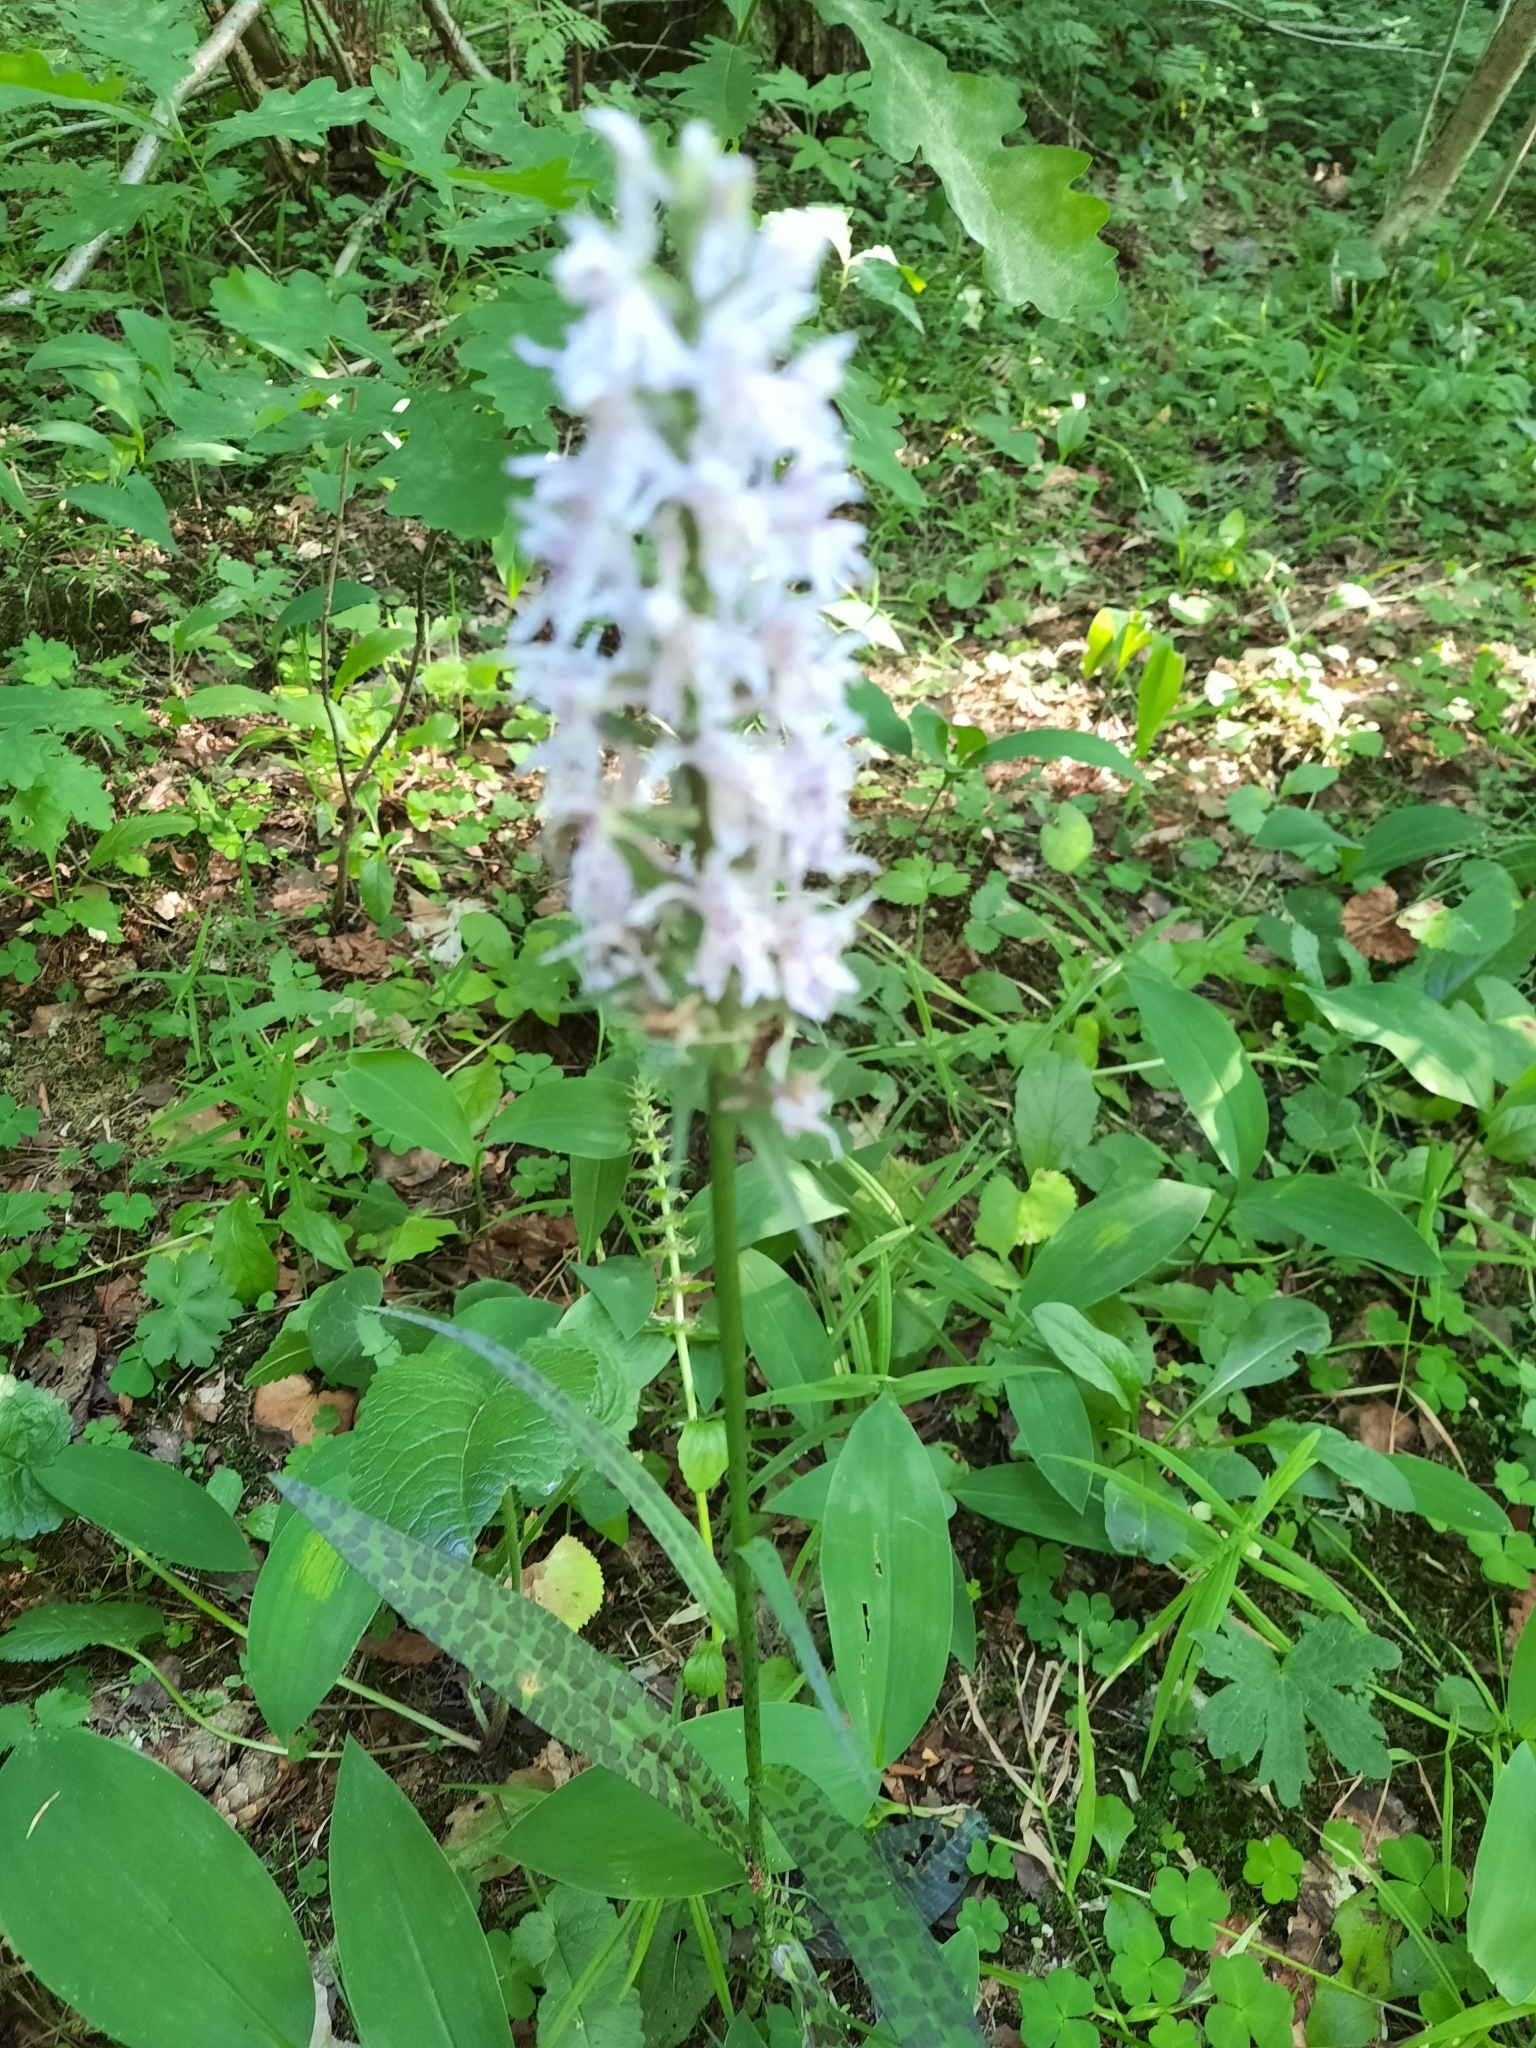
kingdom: Plantae
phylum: Tracheophyta
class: Liliopsida
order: Asparagales
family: Orchidaceae
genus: Dactylorhiza
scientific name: Dactylorhiza maculata
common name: Heath spotted-orchid
